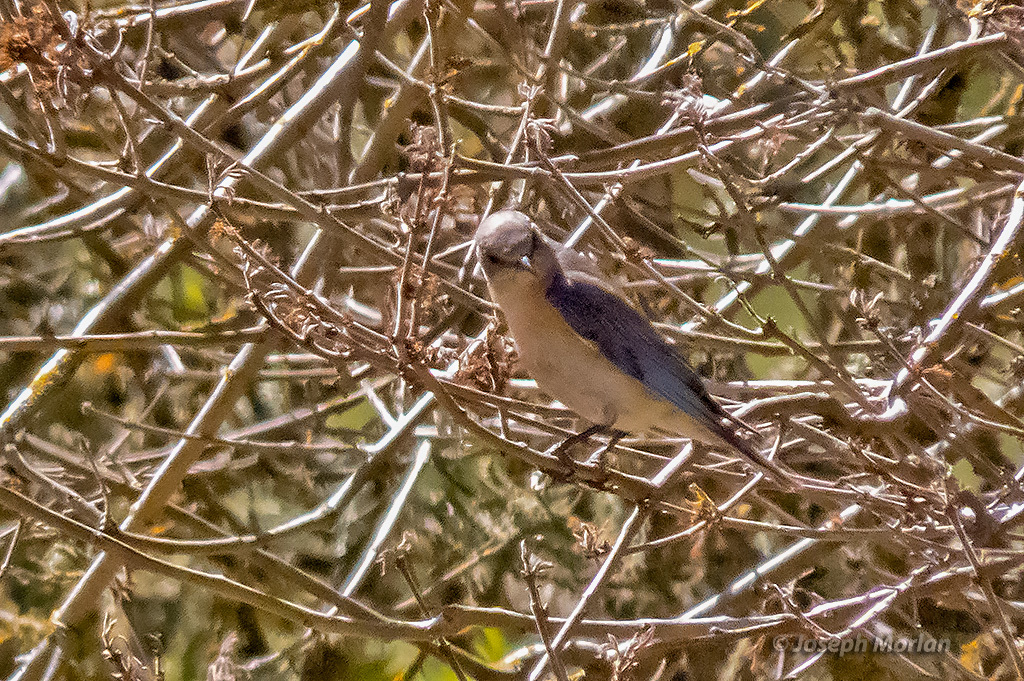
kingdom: Animalia
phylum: Chordata
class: Aves
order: Passeriformes
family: Turdidae
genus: Sialia
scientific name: Sialia mexicana
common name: Western bluebird
